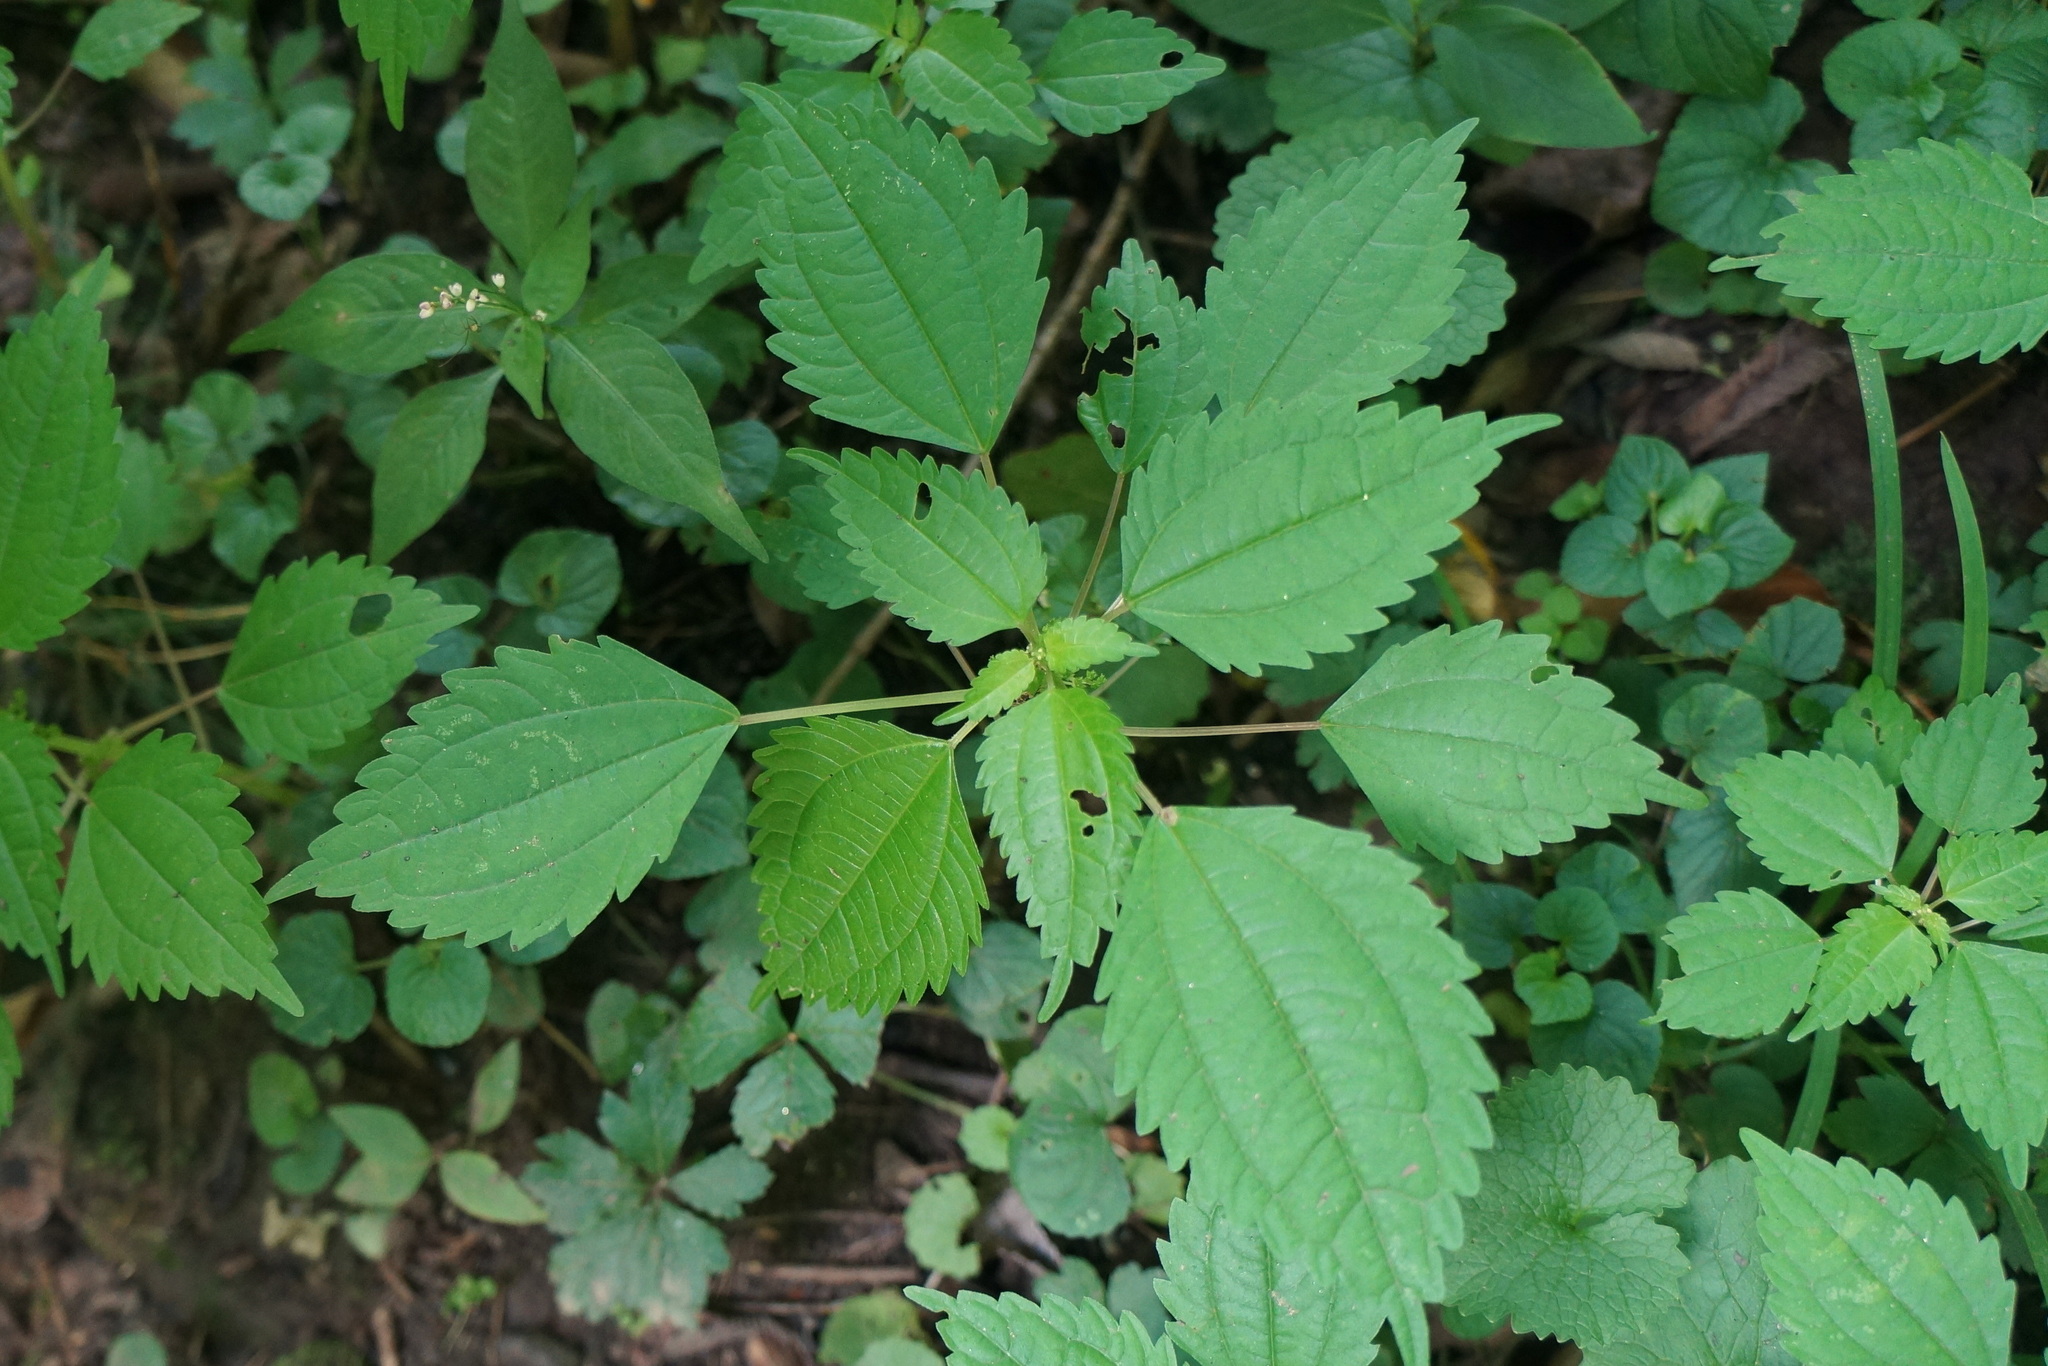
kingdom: Plantae
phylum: Tracheophyta
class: Magnoliopsida
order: Rosales
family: Urticaceae
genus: Pilea
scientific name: Pilea pumila
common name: Clearweed
